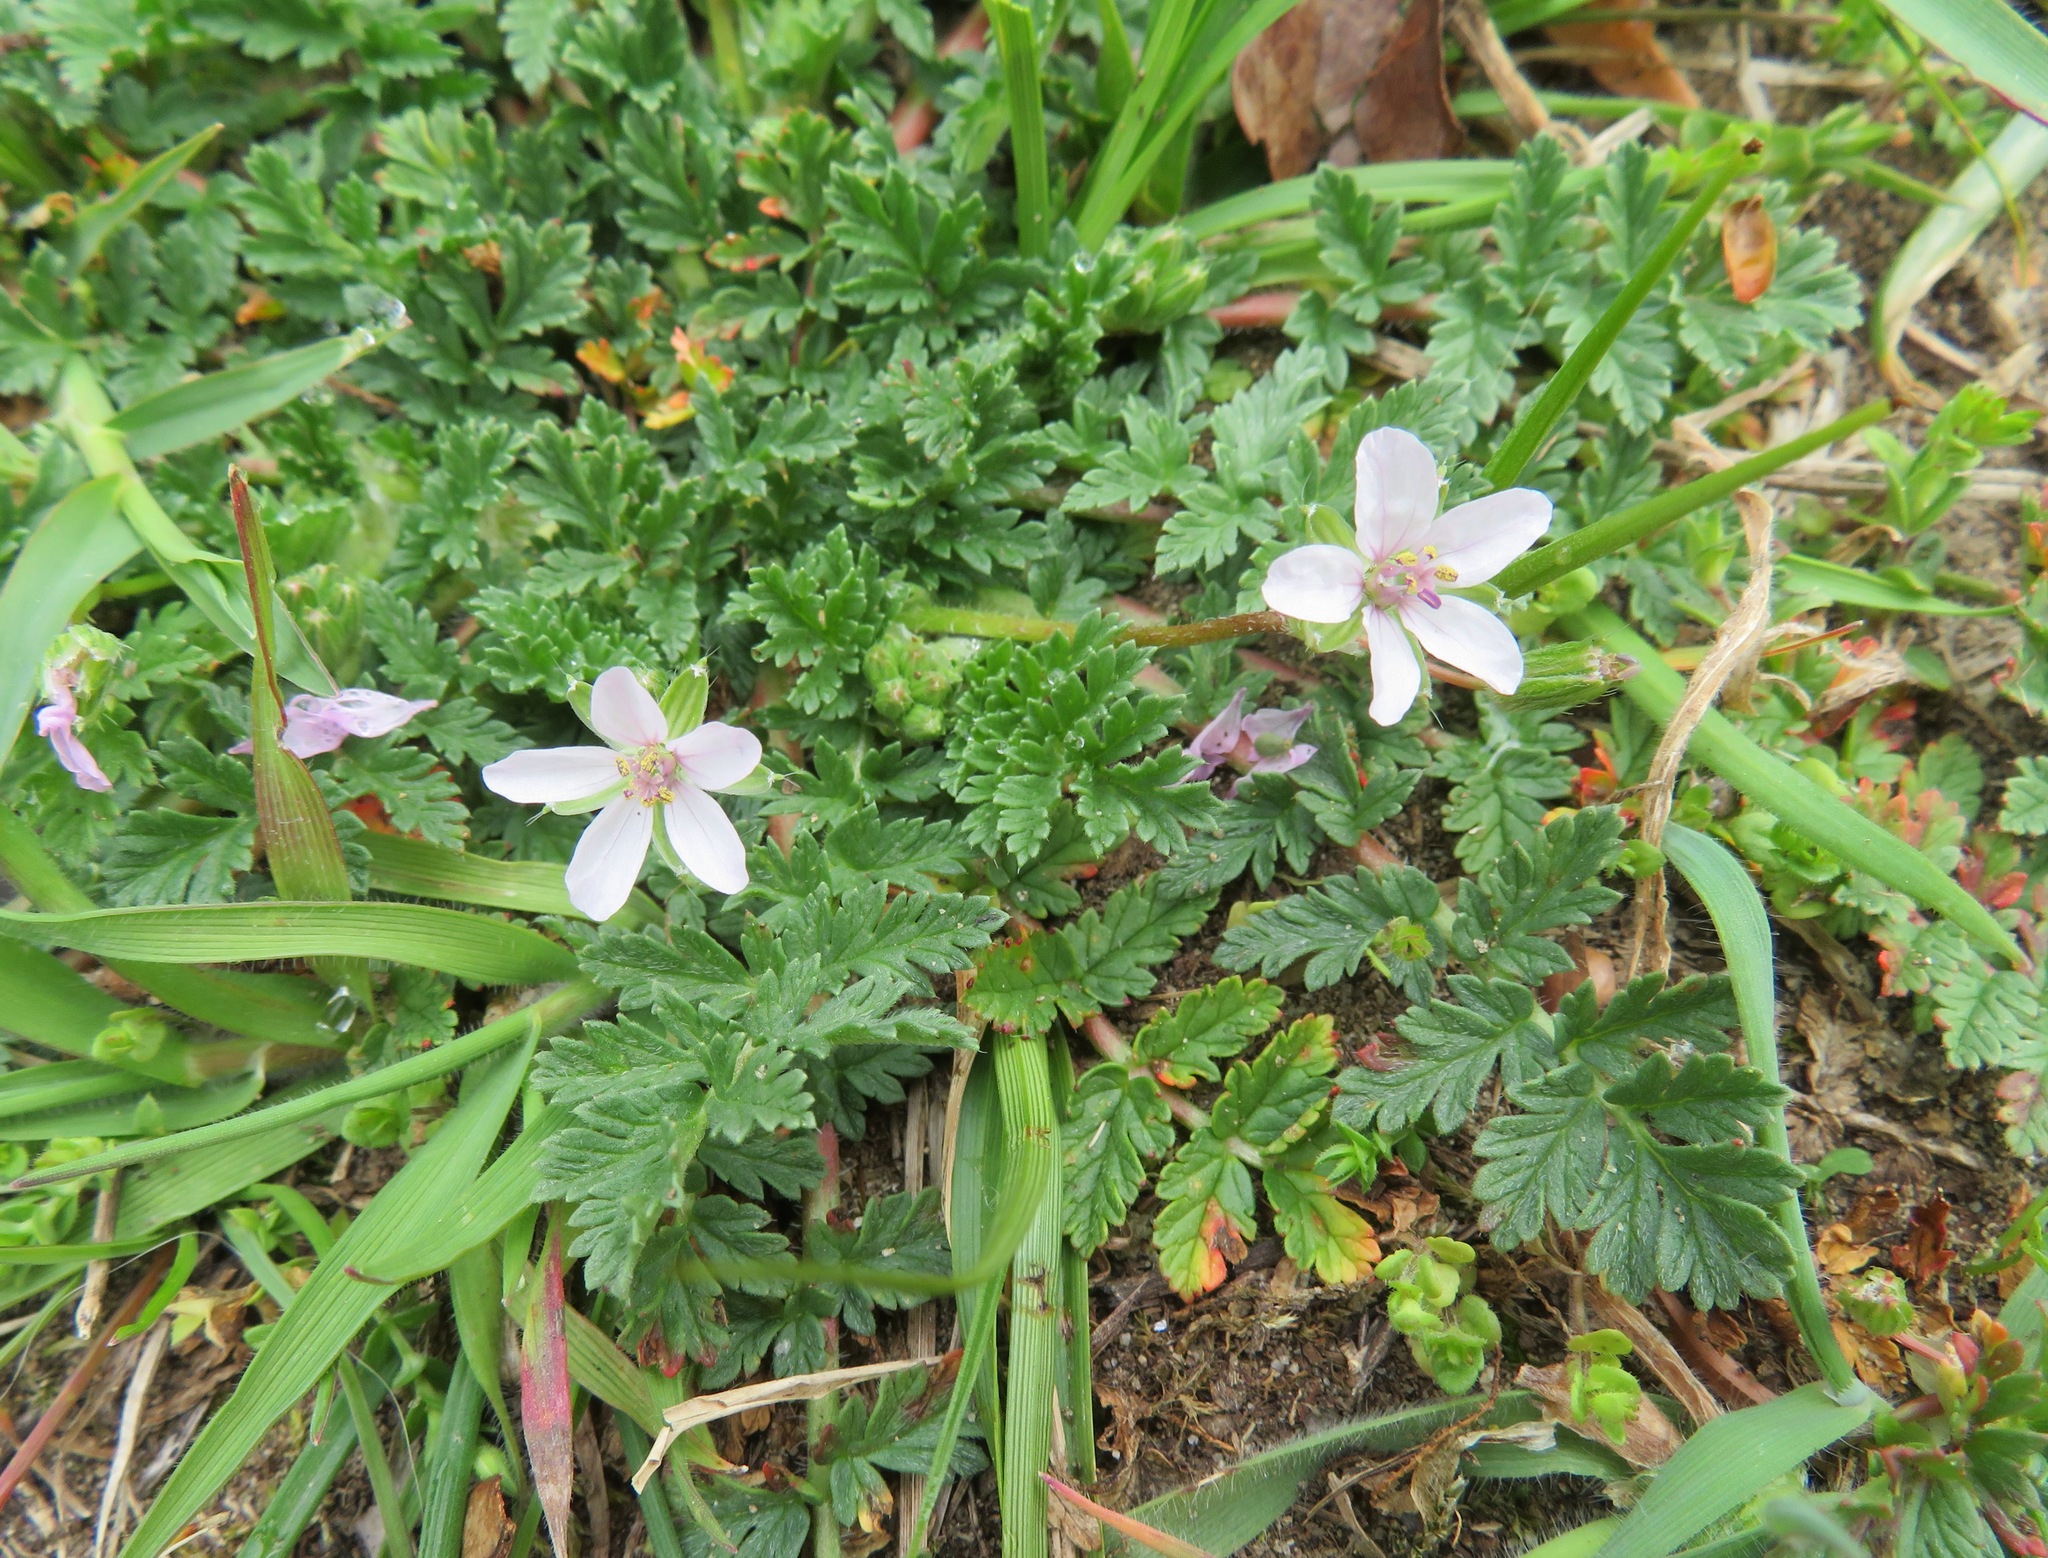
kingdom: Plantae
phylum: Tracheophyta
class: Magnoliopsida
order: Geraniales
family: Geraniaceae
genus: Erodium
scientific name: Erodium cicutarium
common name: Common stork's-bill
